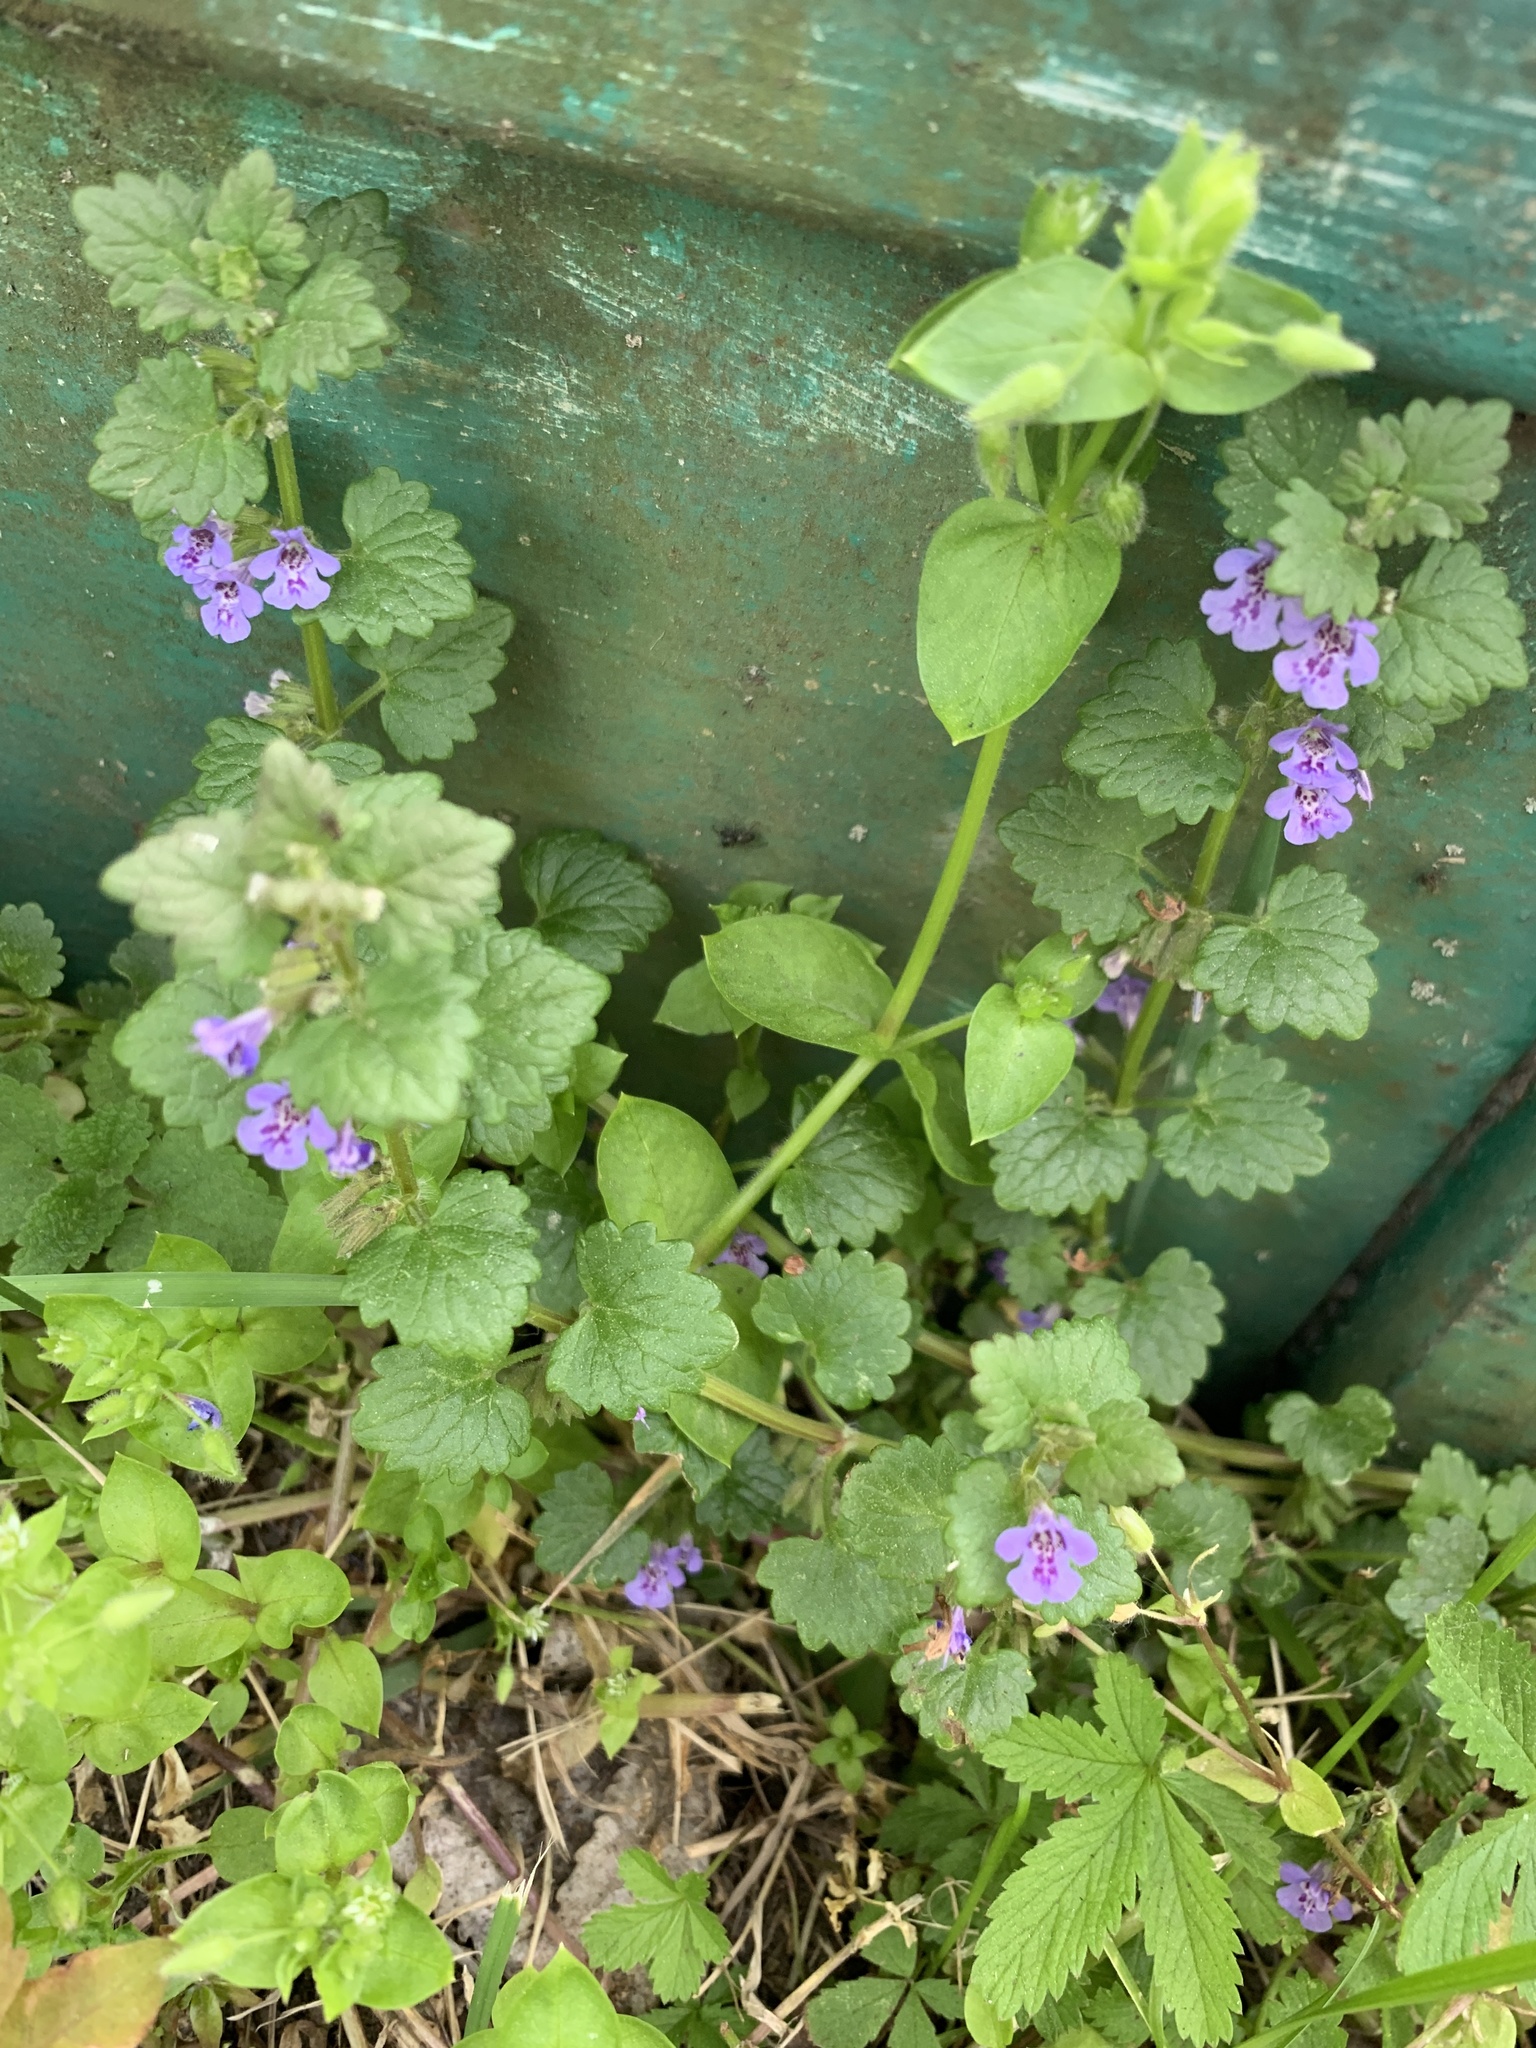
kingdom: Plantae
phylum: Tracheophyta
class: Magnoliopsida
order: Lamiales
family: Lamiaceae
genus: Glechoma
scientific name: Glechoma hederacea
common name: Ground ivy
